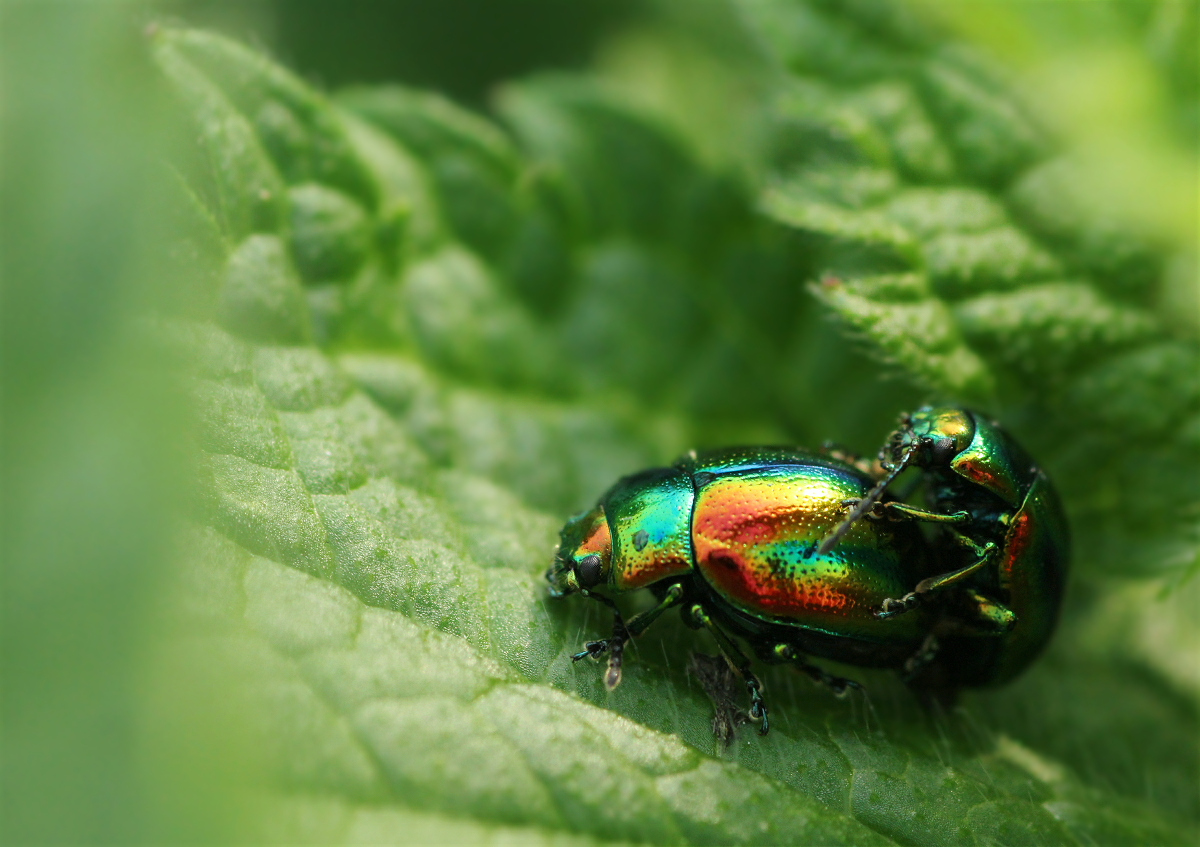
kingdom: Animalia
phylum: Arthropoda
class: Insecta
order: Coleoptera
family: Chrysomelidae
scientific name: Chrysomelidae
